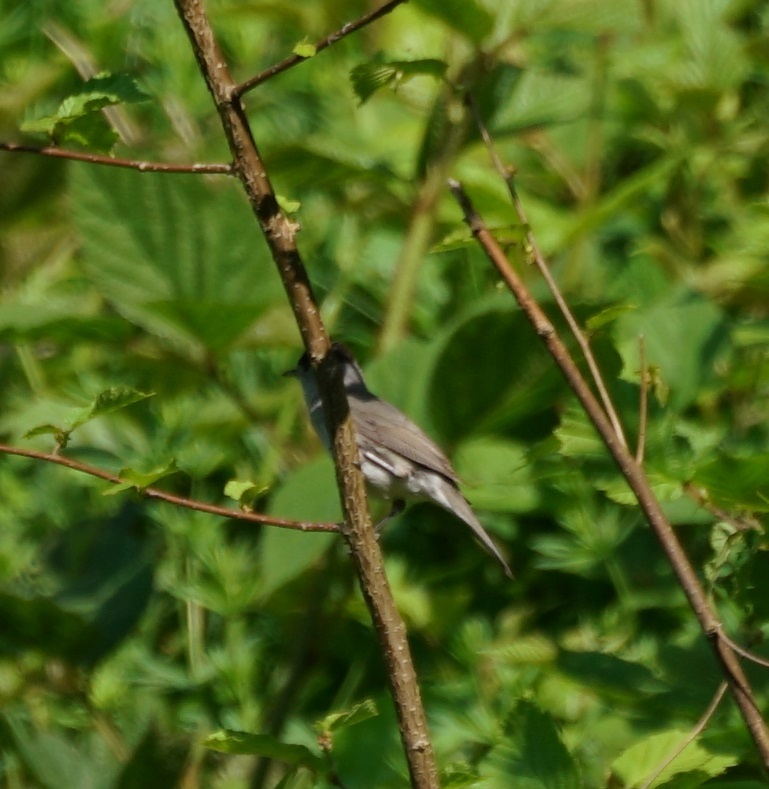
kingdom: Animalia
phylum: Chordata
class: Aves
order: Passeriformes
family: Sylviidae
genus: Sylvia
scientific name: Sylvia atricapilla
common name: Eurasian blackcap
